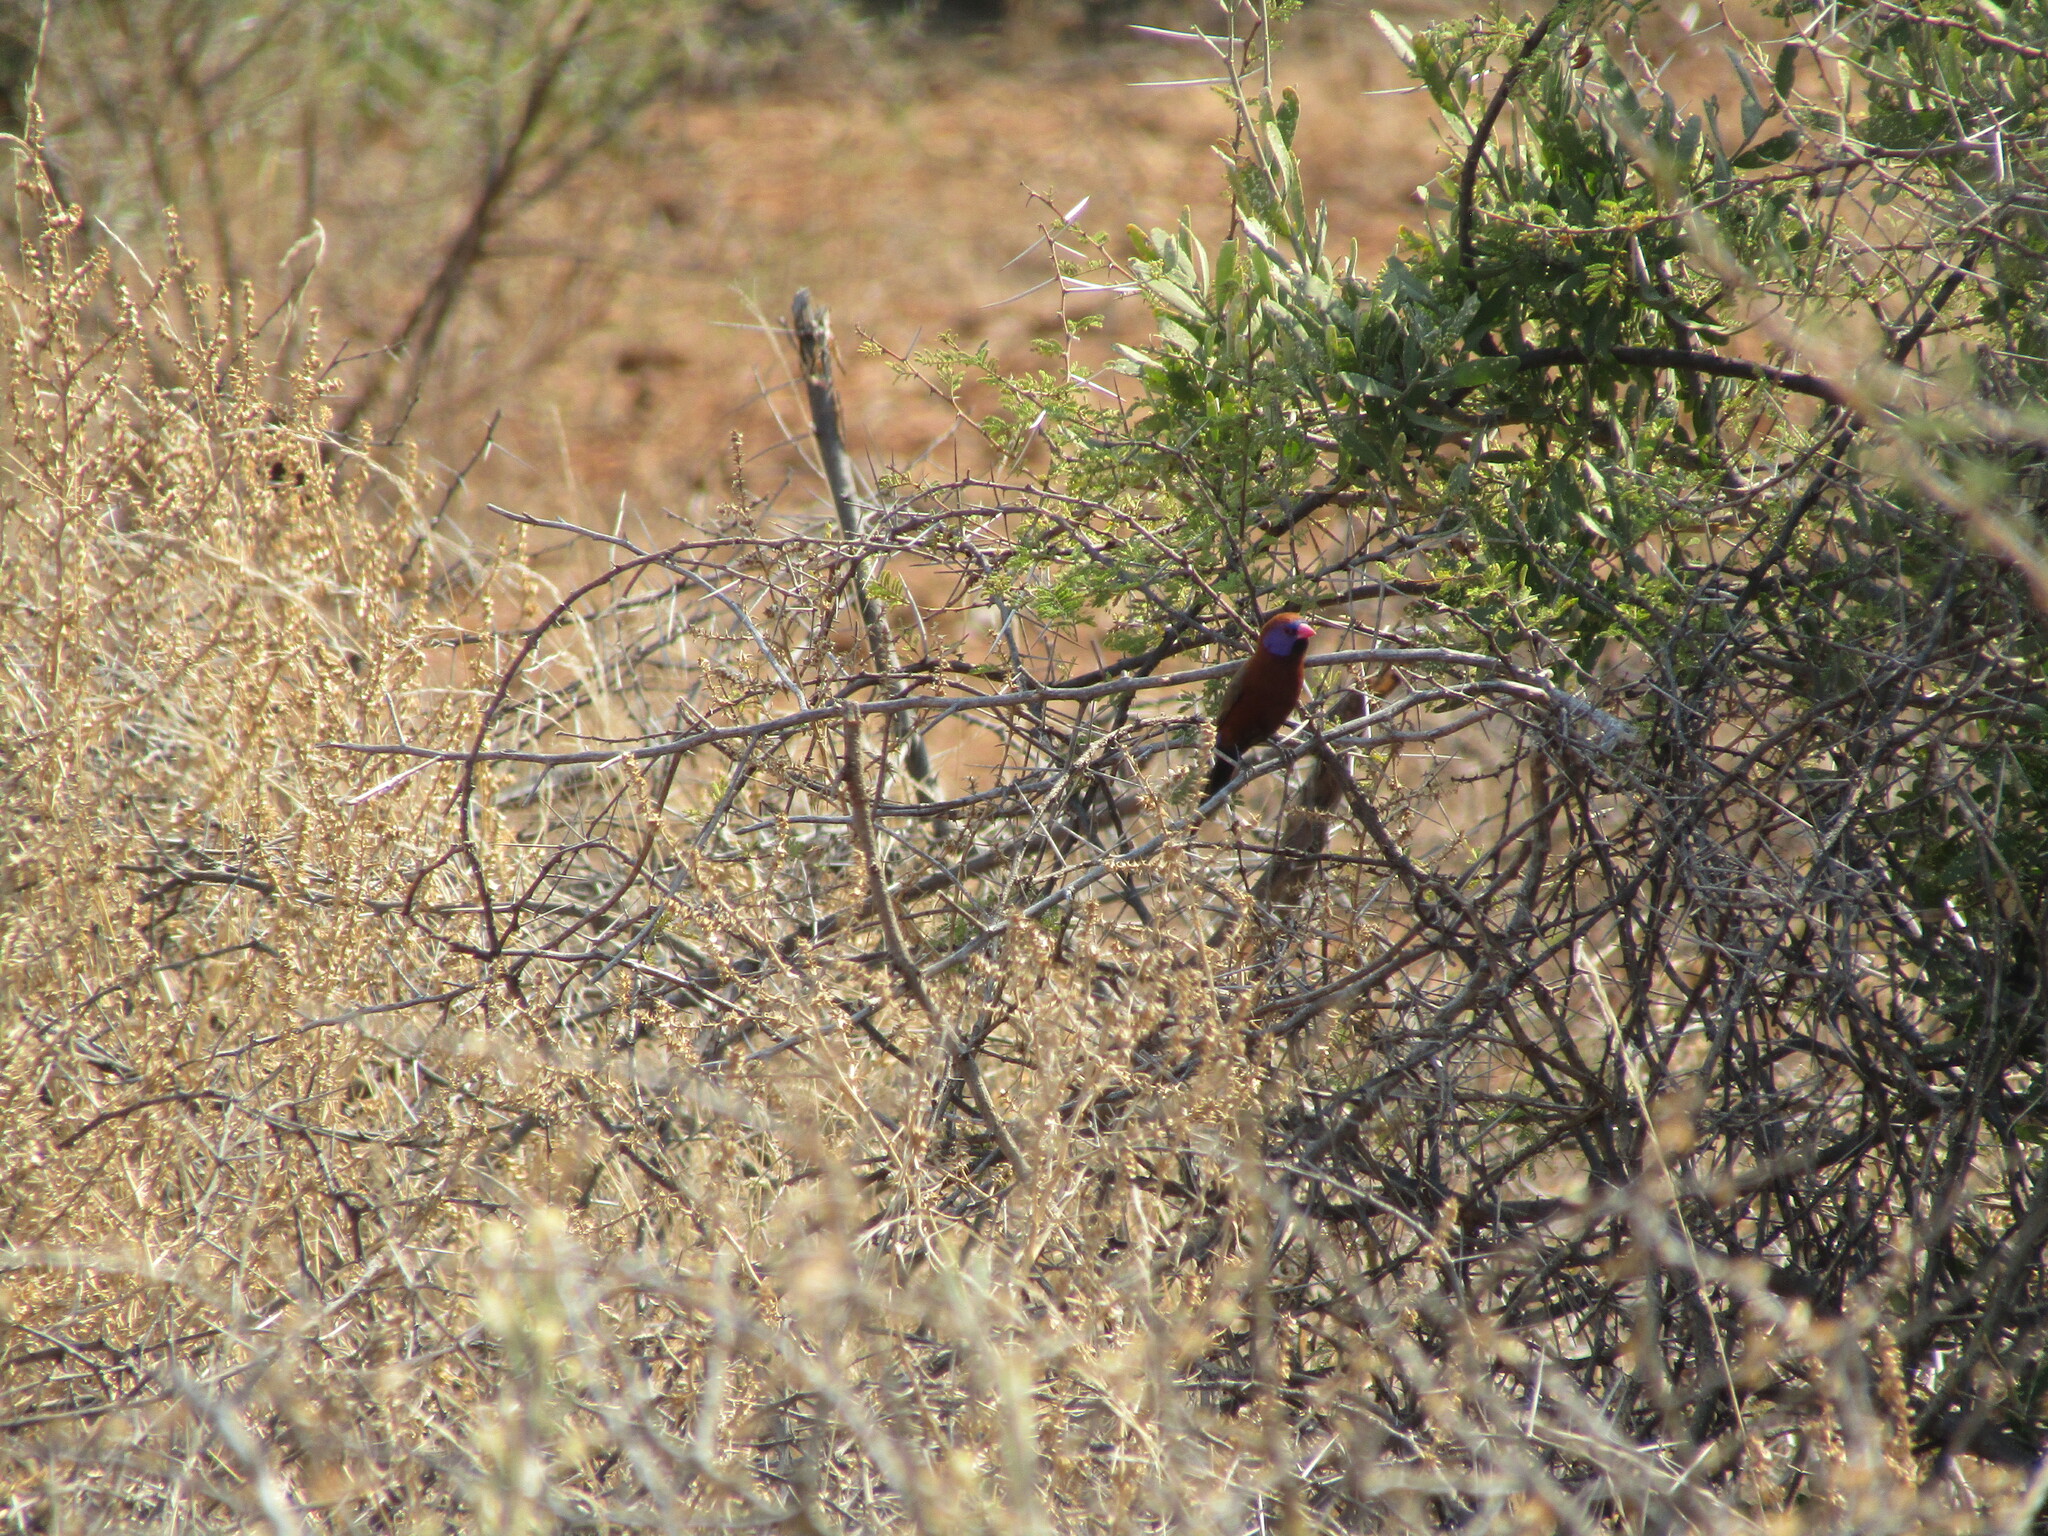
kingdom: Animalia
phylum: Chordata
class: Aves
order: Passeriformes
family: Estrildidae
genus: Uraeginthus
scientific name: Uraeginthus granatinus
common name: Violet-eared waxbill
